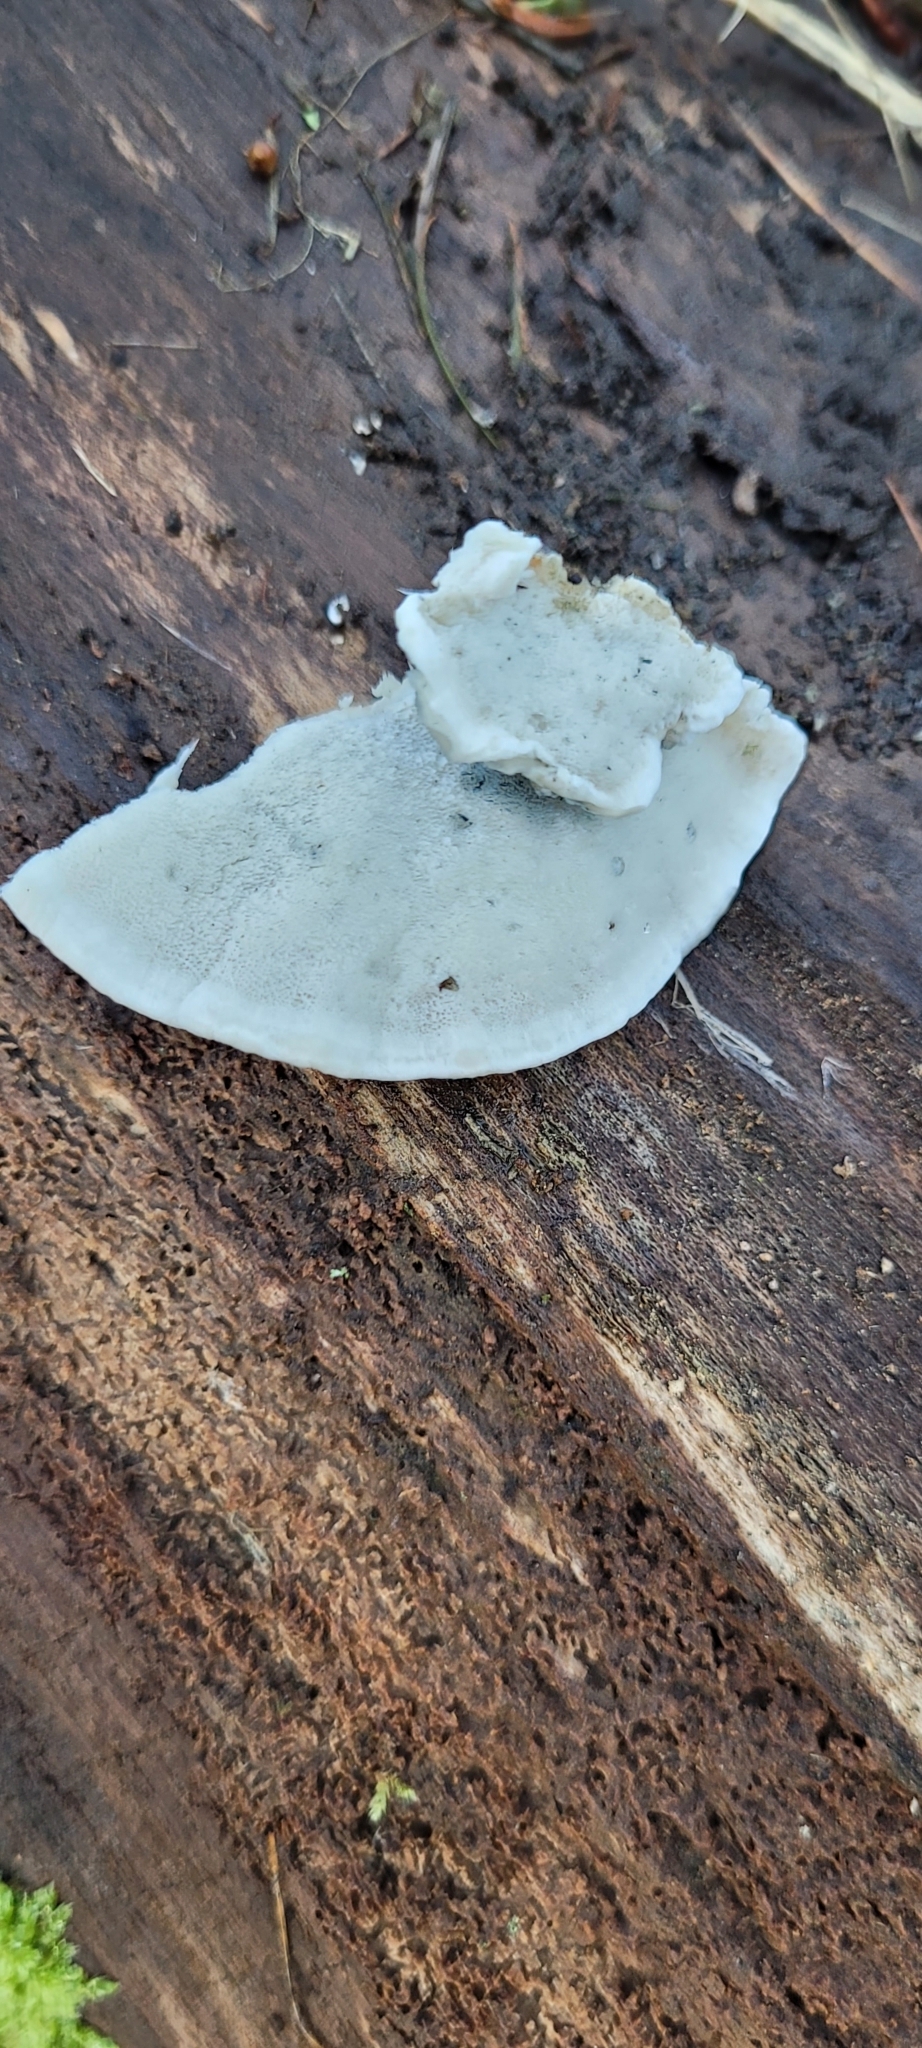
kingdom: Fungi
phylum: Basidiomycota
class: Agaricomycetes
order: Polyporales
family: Polyporaceae
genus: Cyanosporus
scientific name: Cyanosporus caesius
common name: Blue cheese polypore
